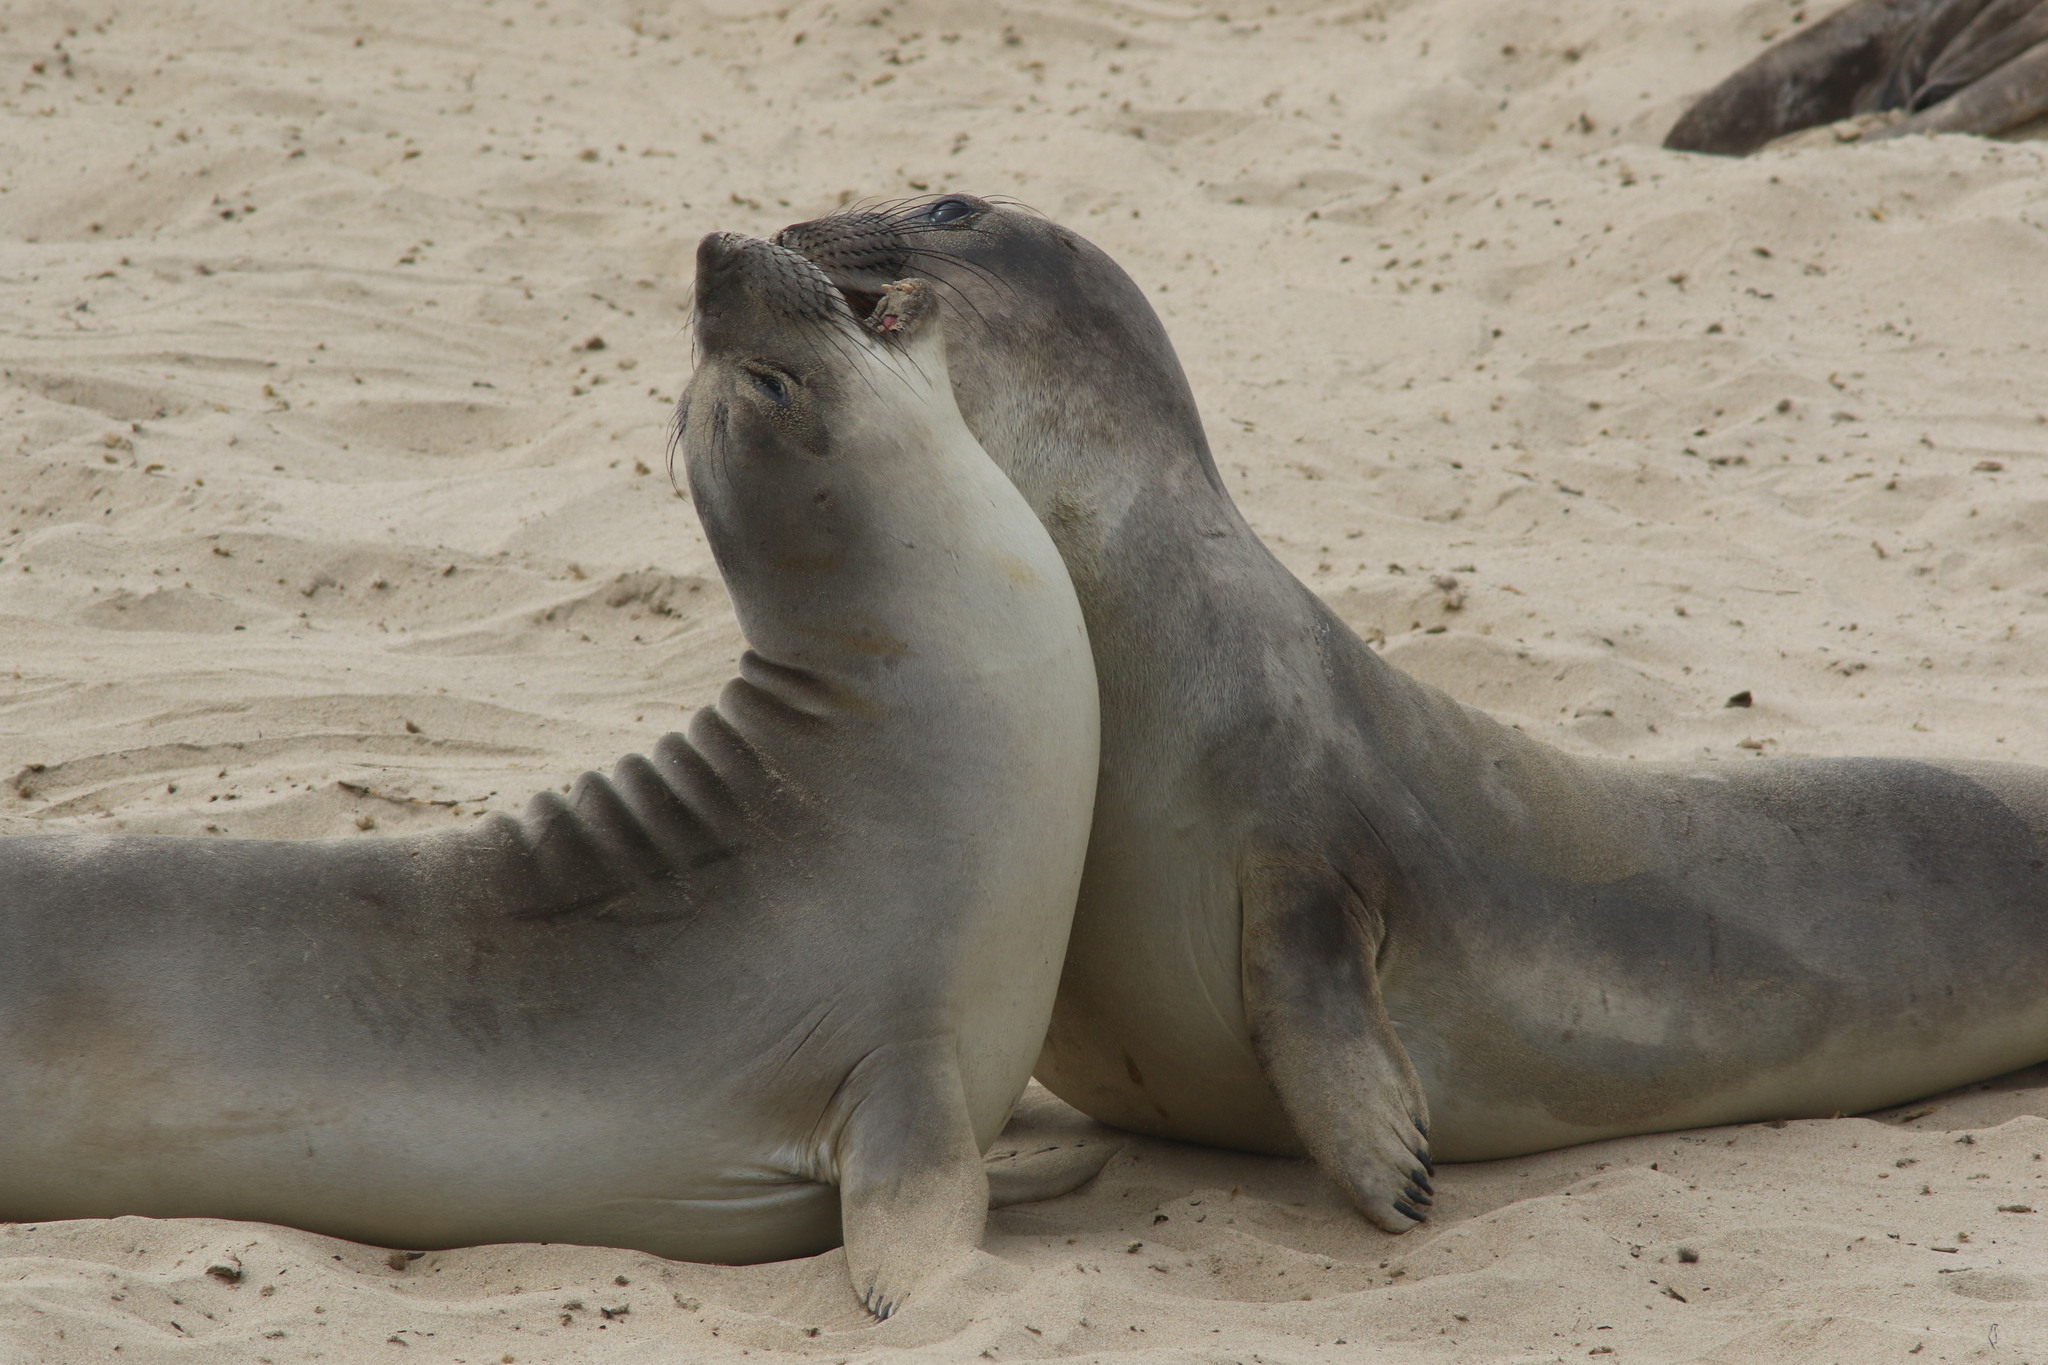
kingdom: Animalia
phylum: Chordata
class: Mammalia
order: Carnivora
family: Phocidae
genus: Mirounga
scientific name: Mirounga angustirostris
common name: Northern elephant seal
